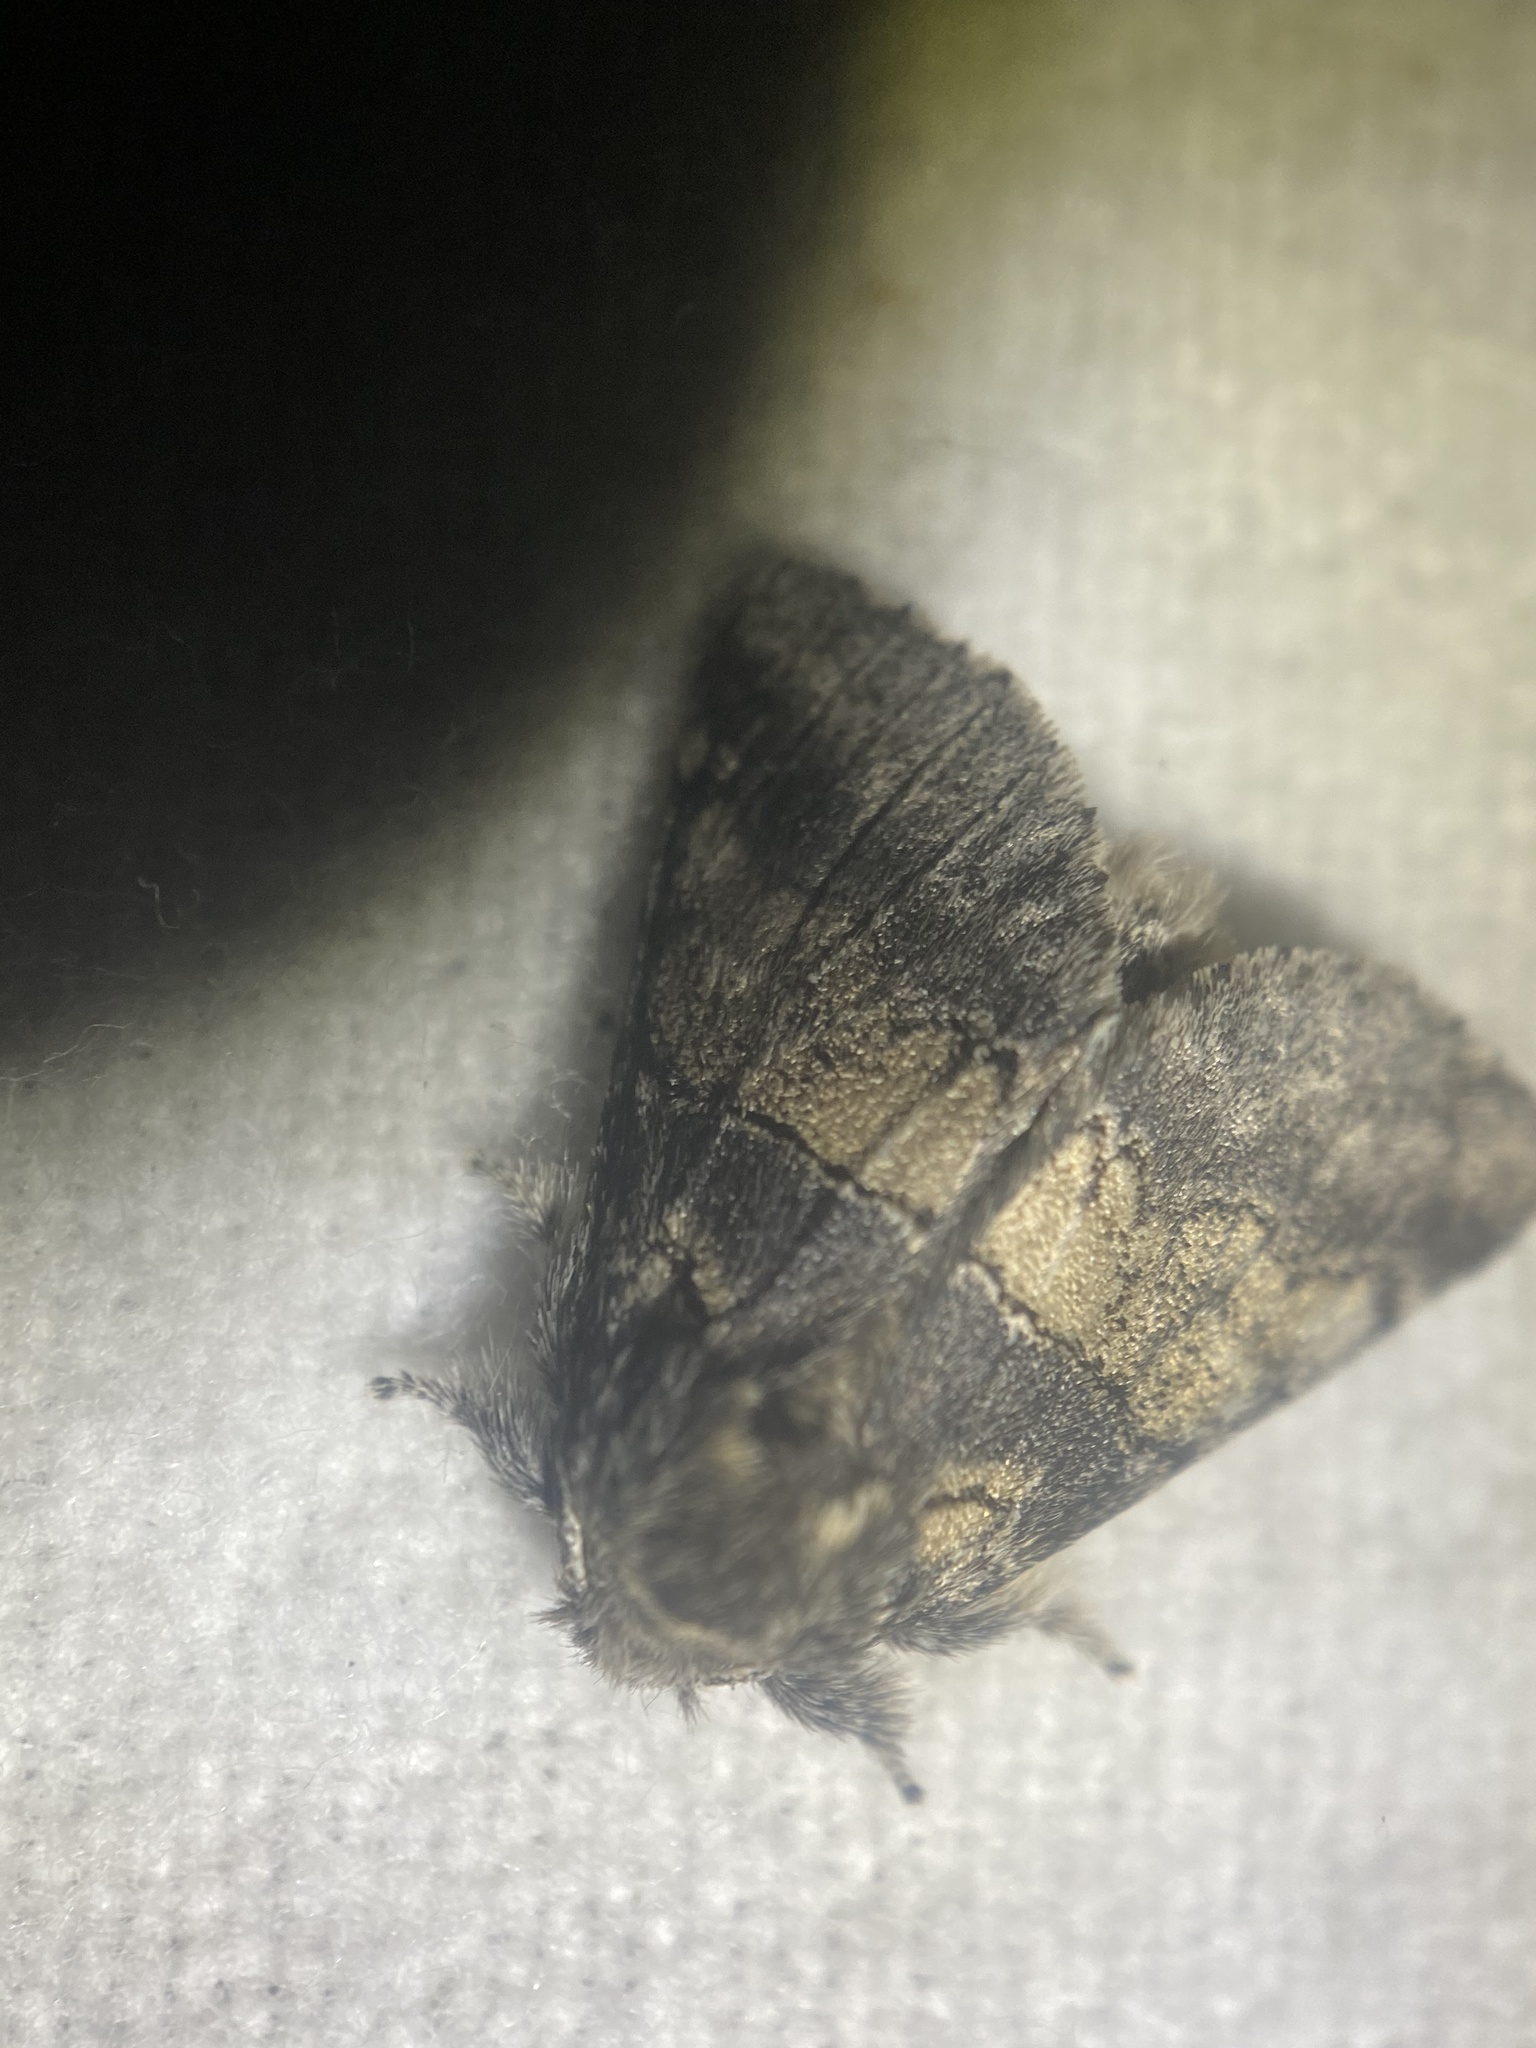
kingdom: Animalia
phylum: Arthropoda
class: Insecta
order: Lepidoptera
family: Notodontidae
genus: Gluphisia
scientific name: Gluphisia septentrionis
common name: Common gluphisia
